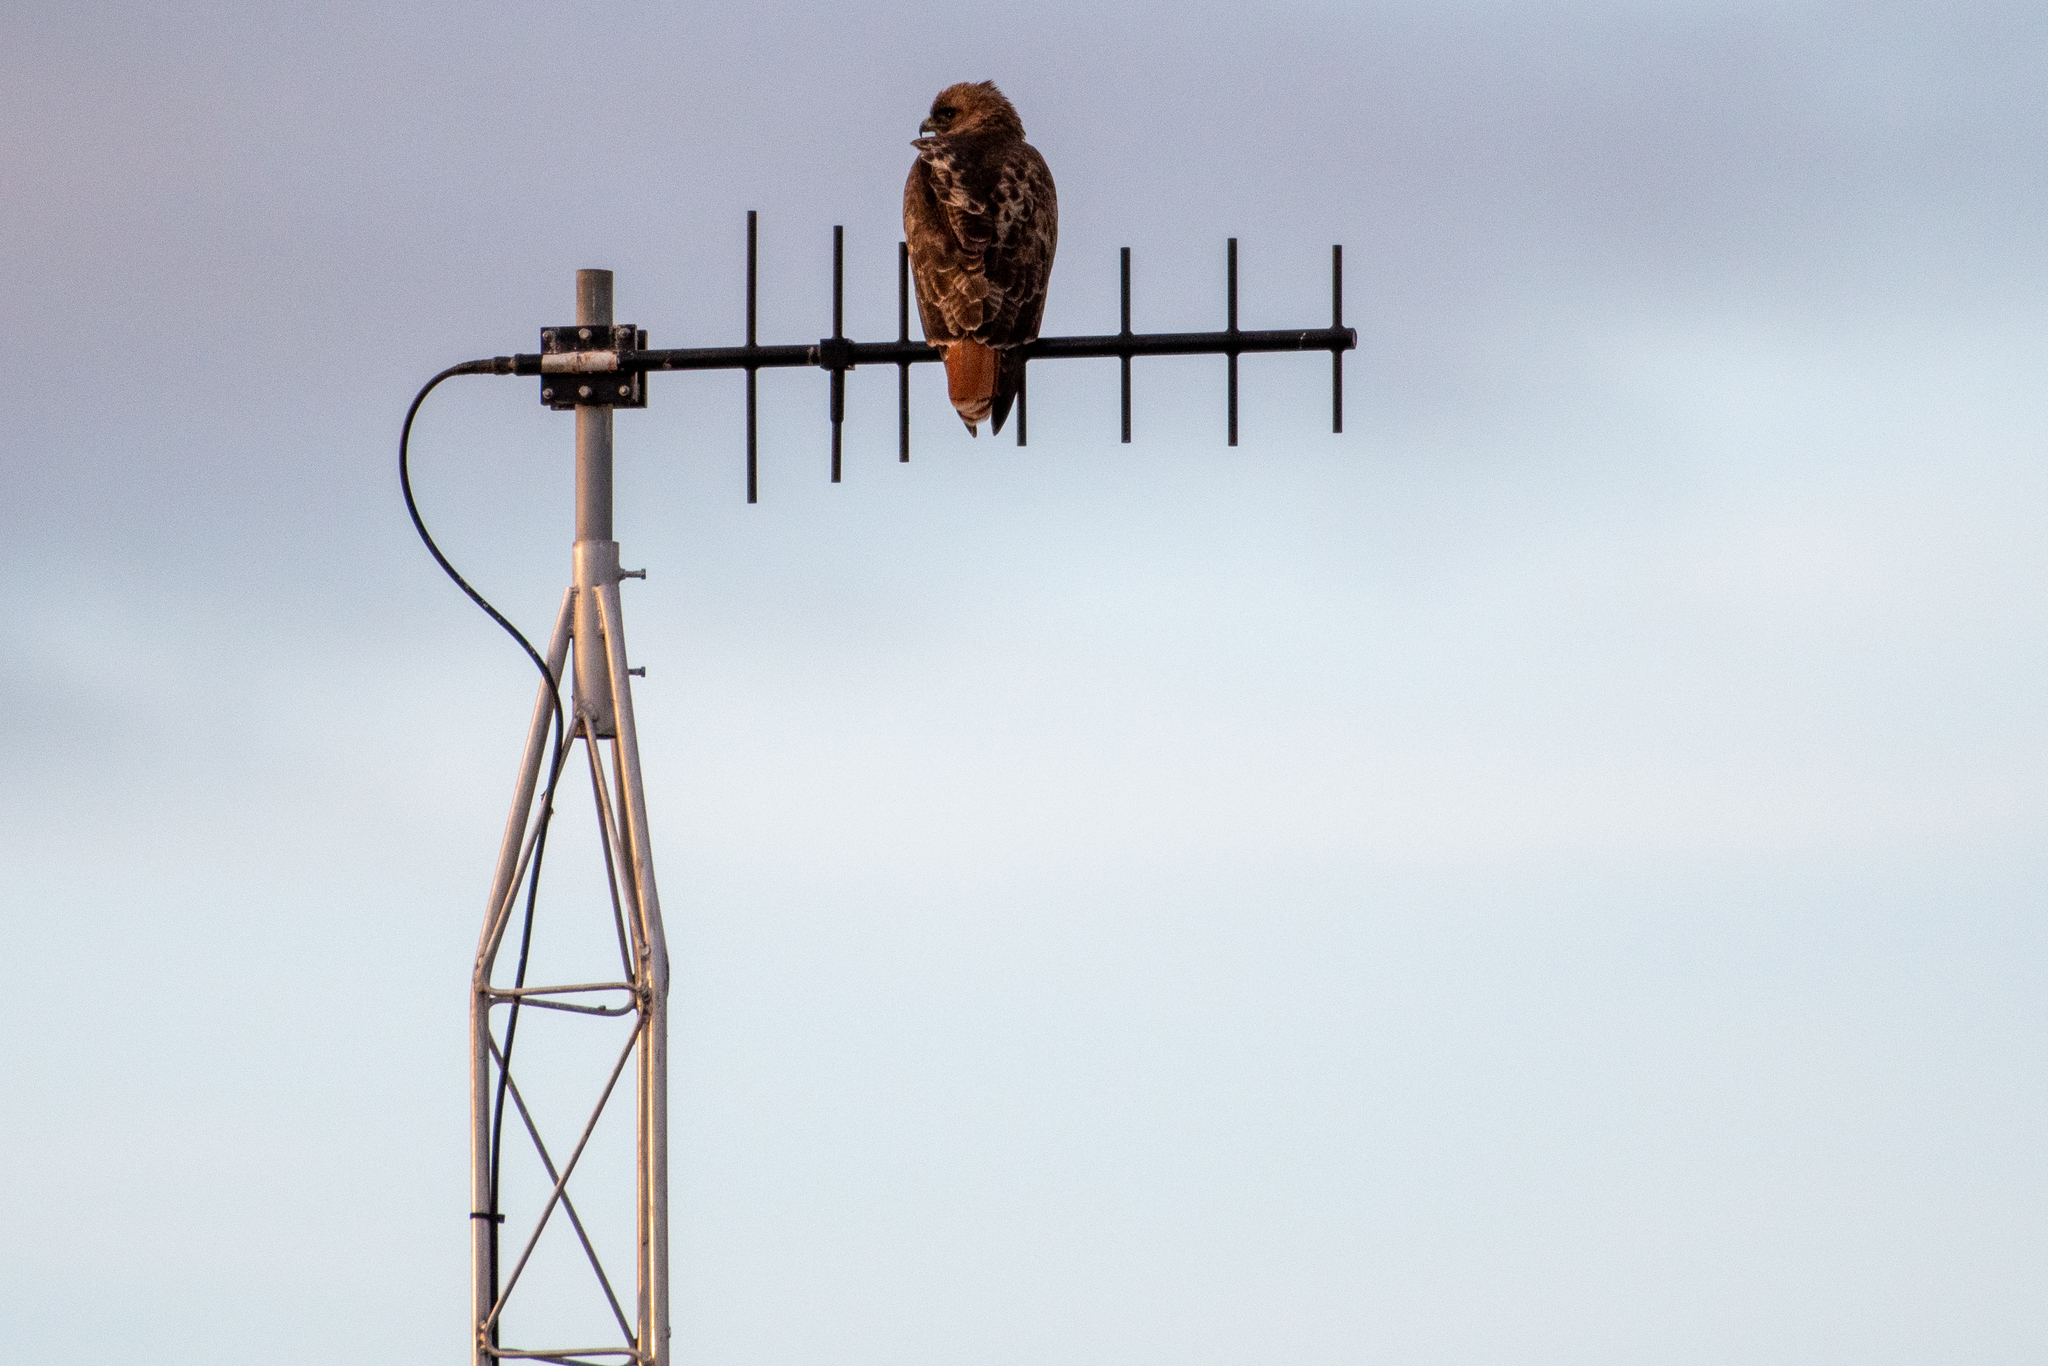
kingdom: Animalia
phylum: Chordata
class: Aves
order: Accipitriformes
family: Accipitridae
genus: Buteo
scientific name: Buteo jamaicensis
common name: Red-tailed hawk
